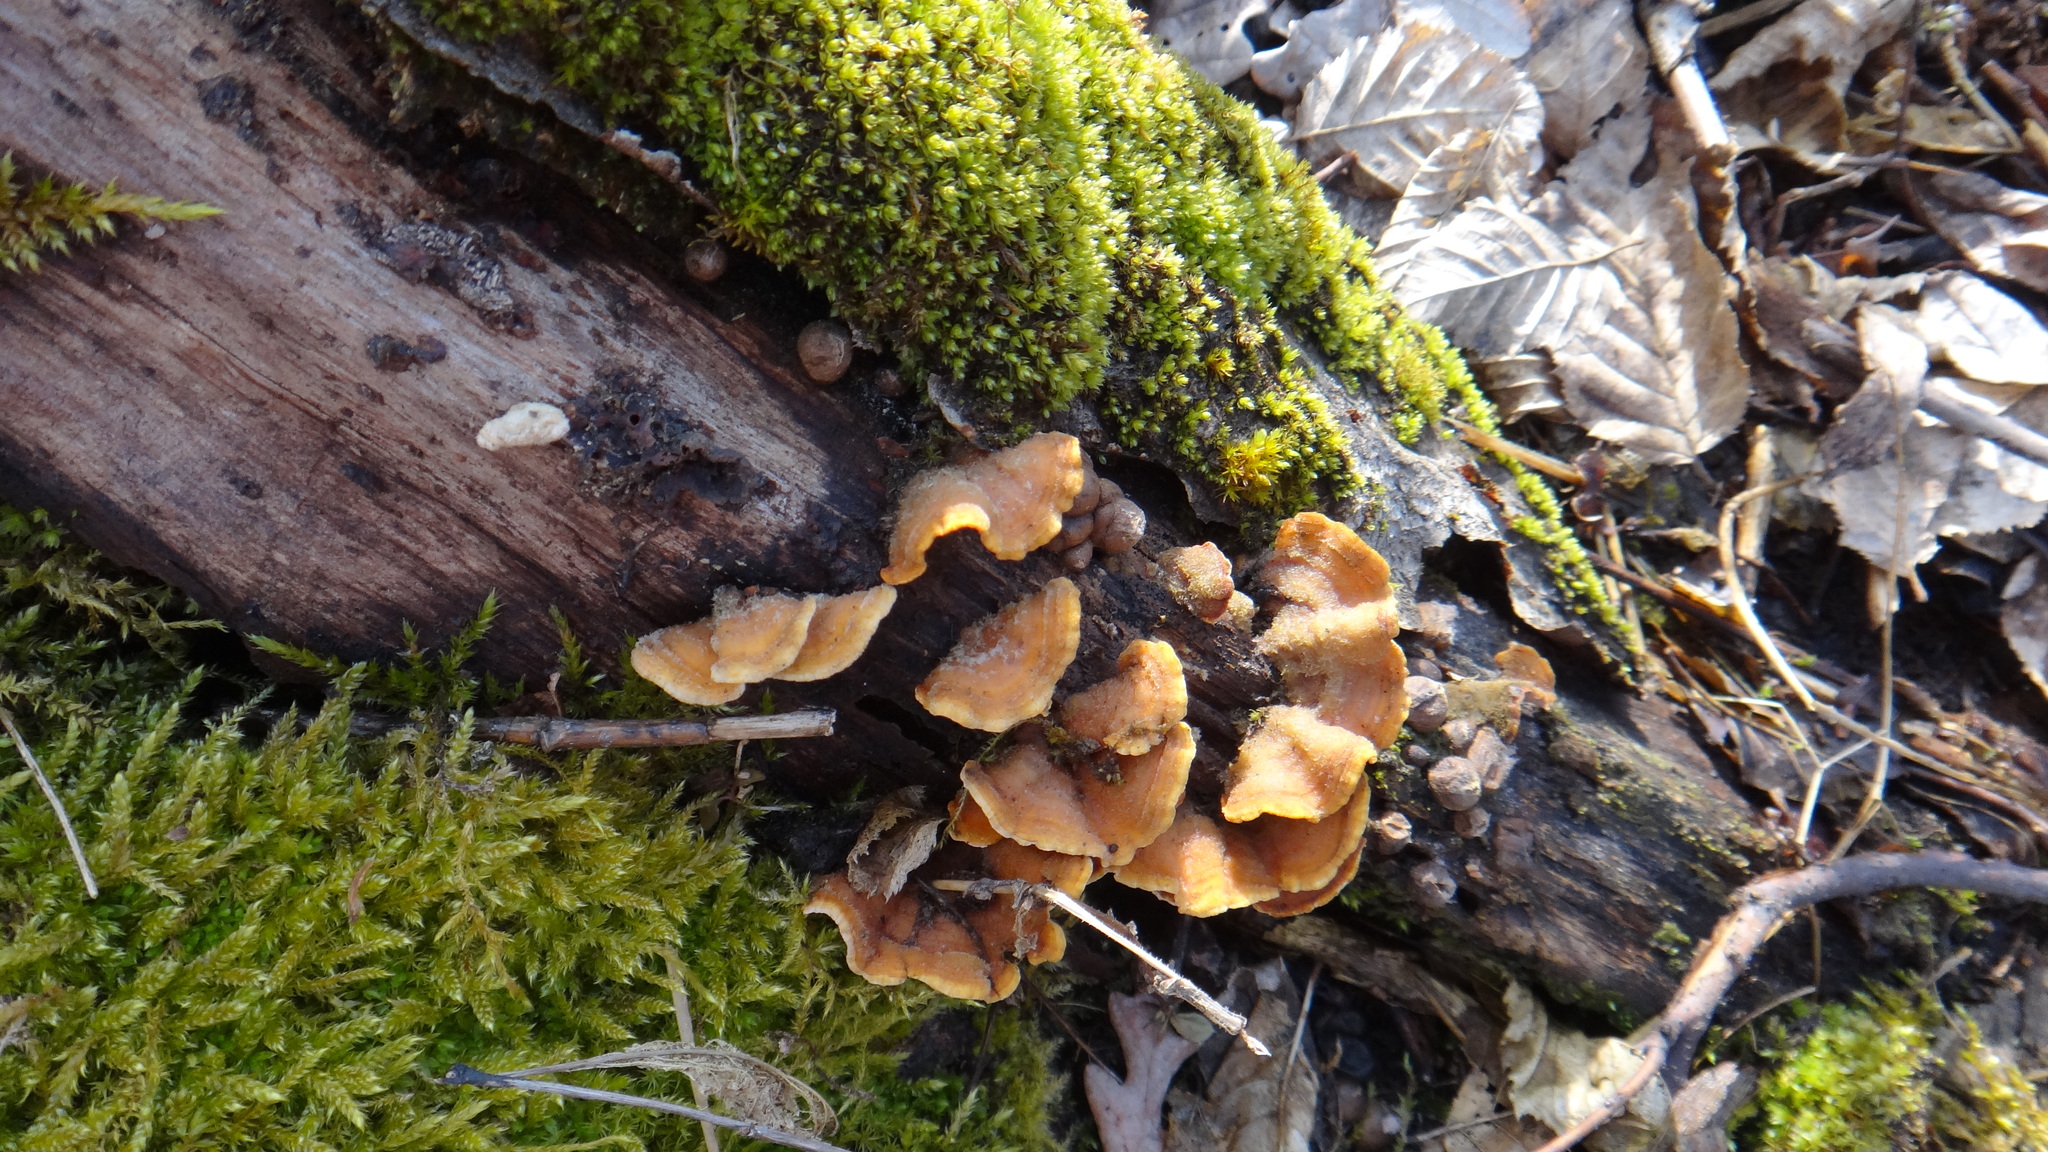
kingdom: Fungi
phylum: Basidiomycota
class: Agaricomycetes
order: Russulales
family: Stereaceae
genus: Stereum
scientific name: Stereum hirsutum
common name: Hairy curtain crust
